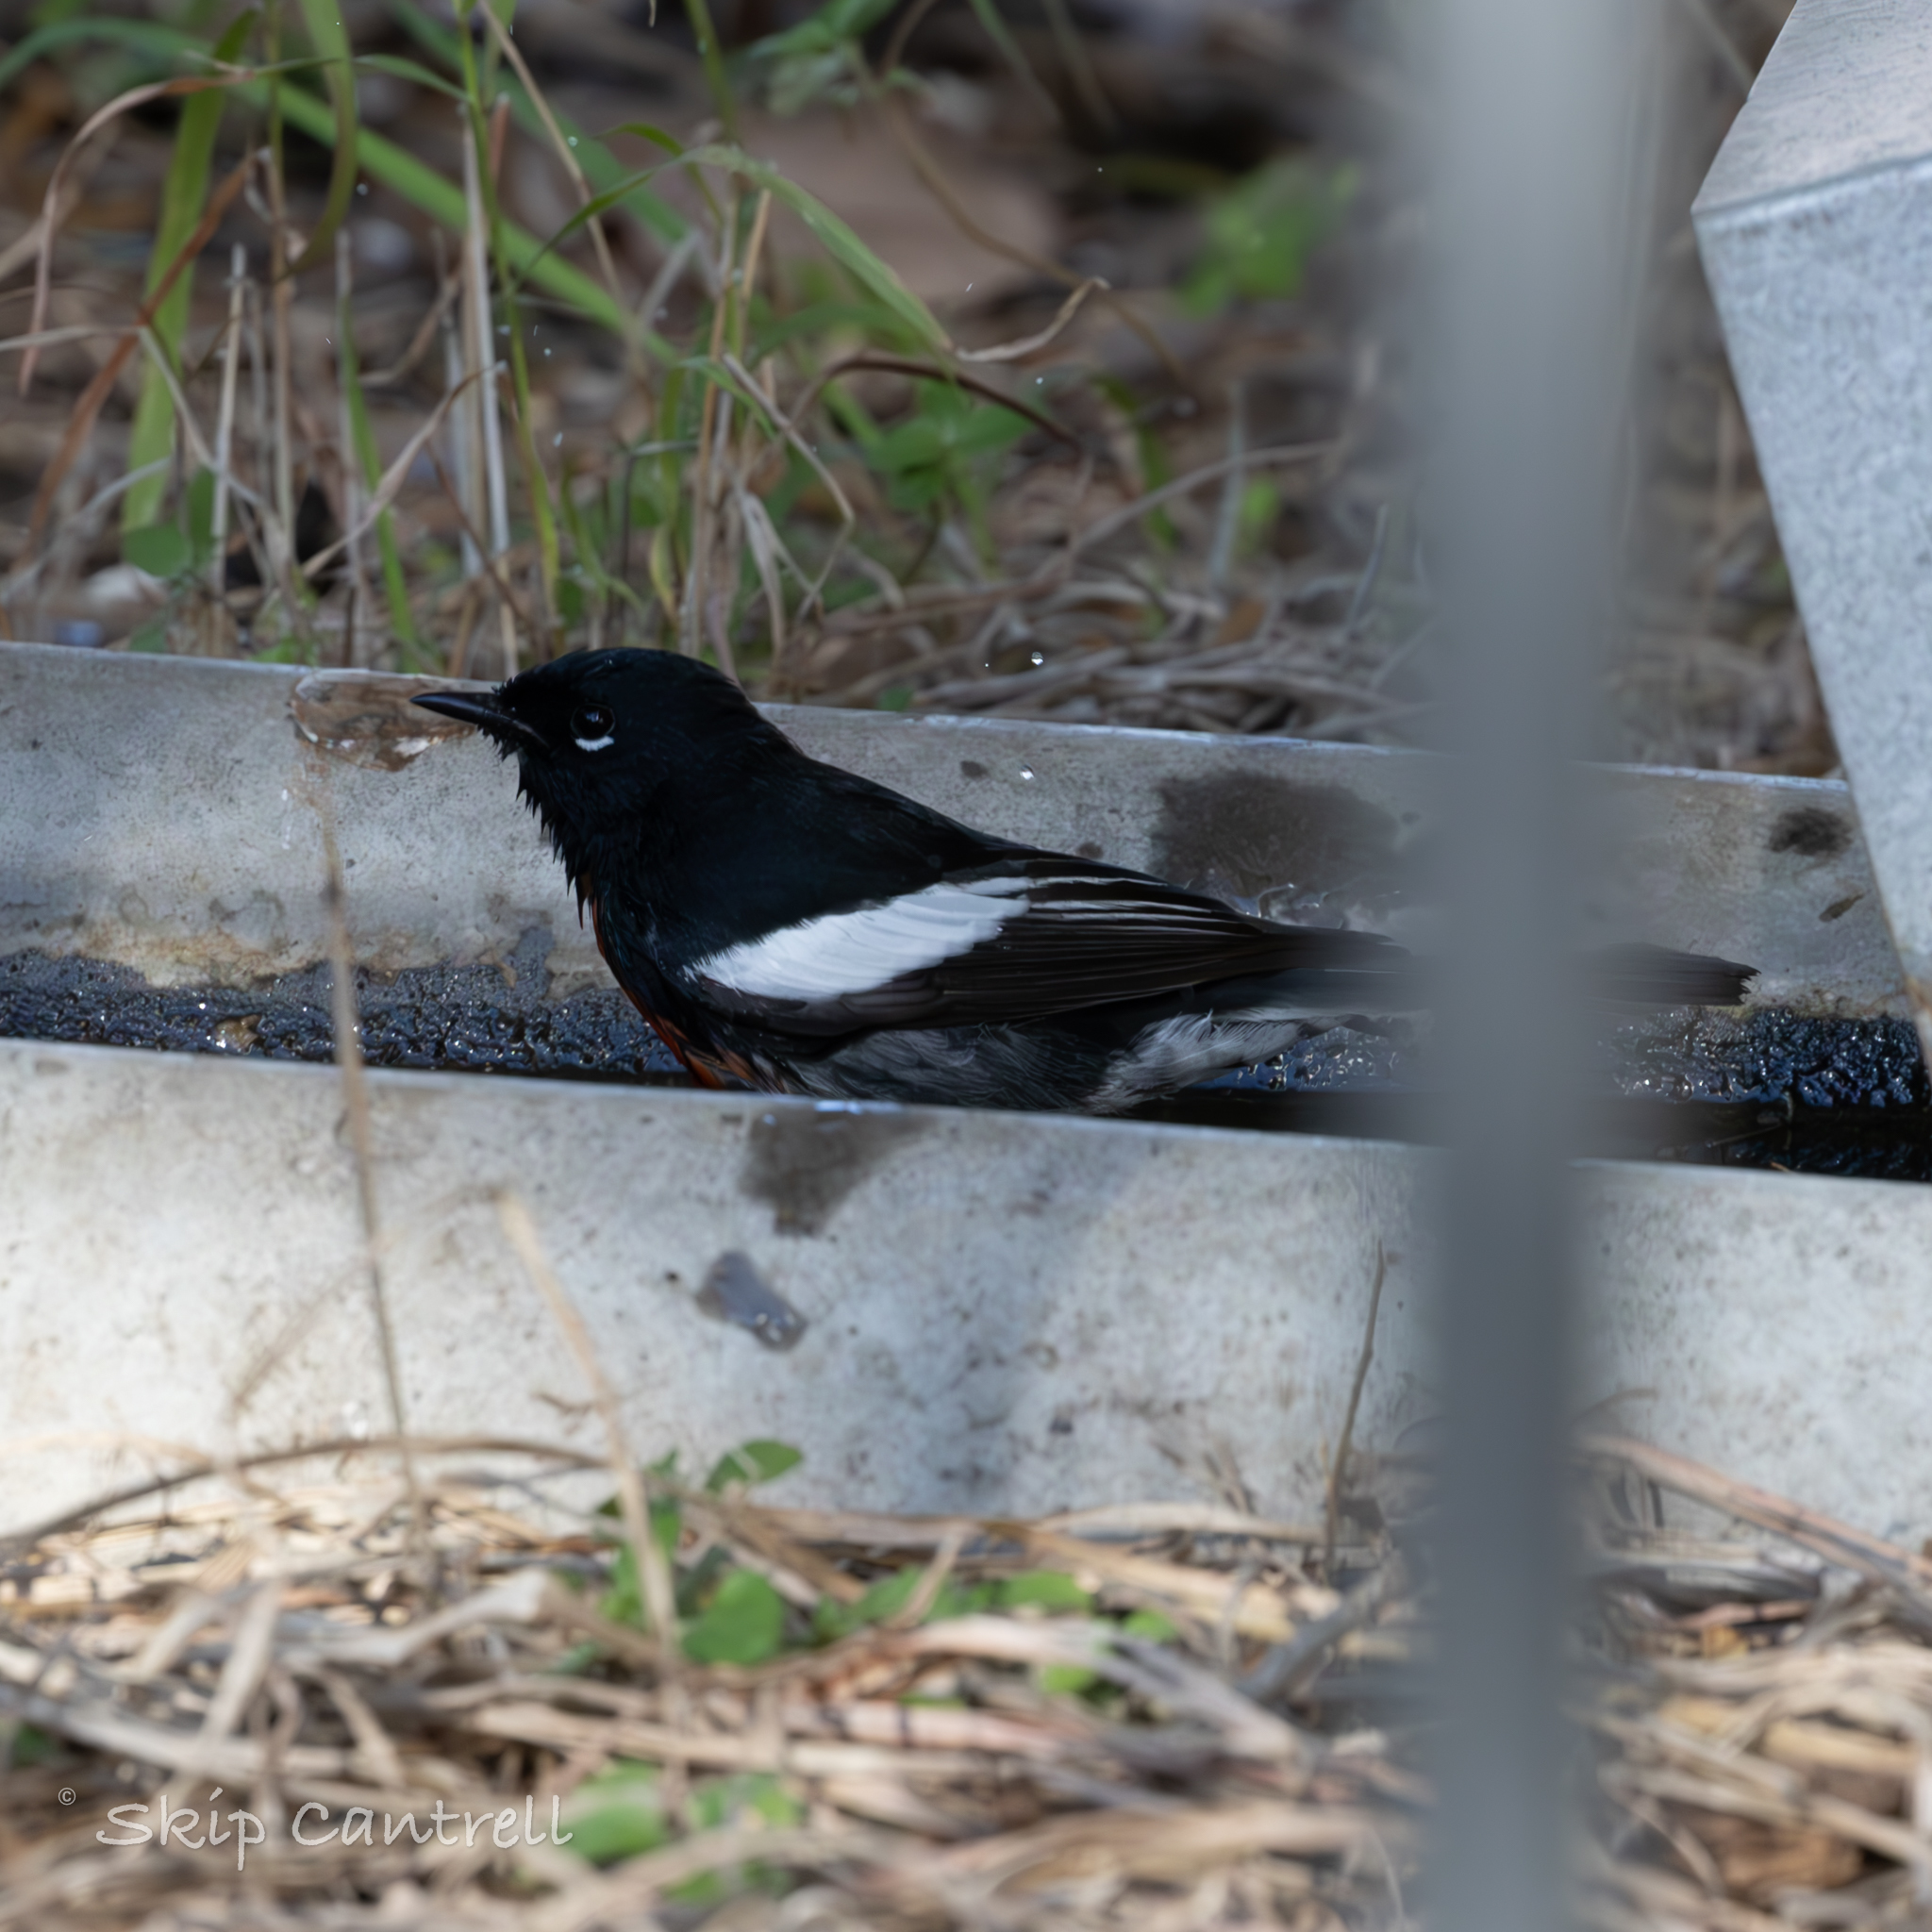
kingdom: Animalia
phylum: Chordata
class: Aves
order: Passeriformes
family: Parulidae
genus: Myioborus
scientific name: Myioborus pictus
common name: Painted whitestart
